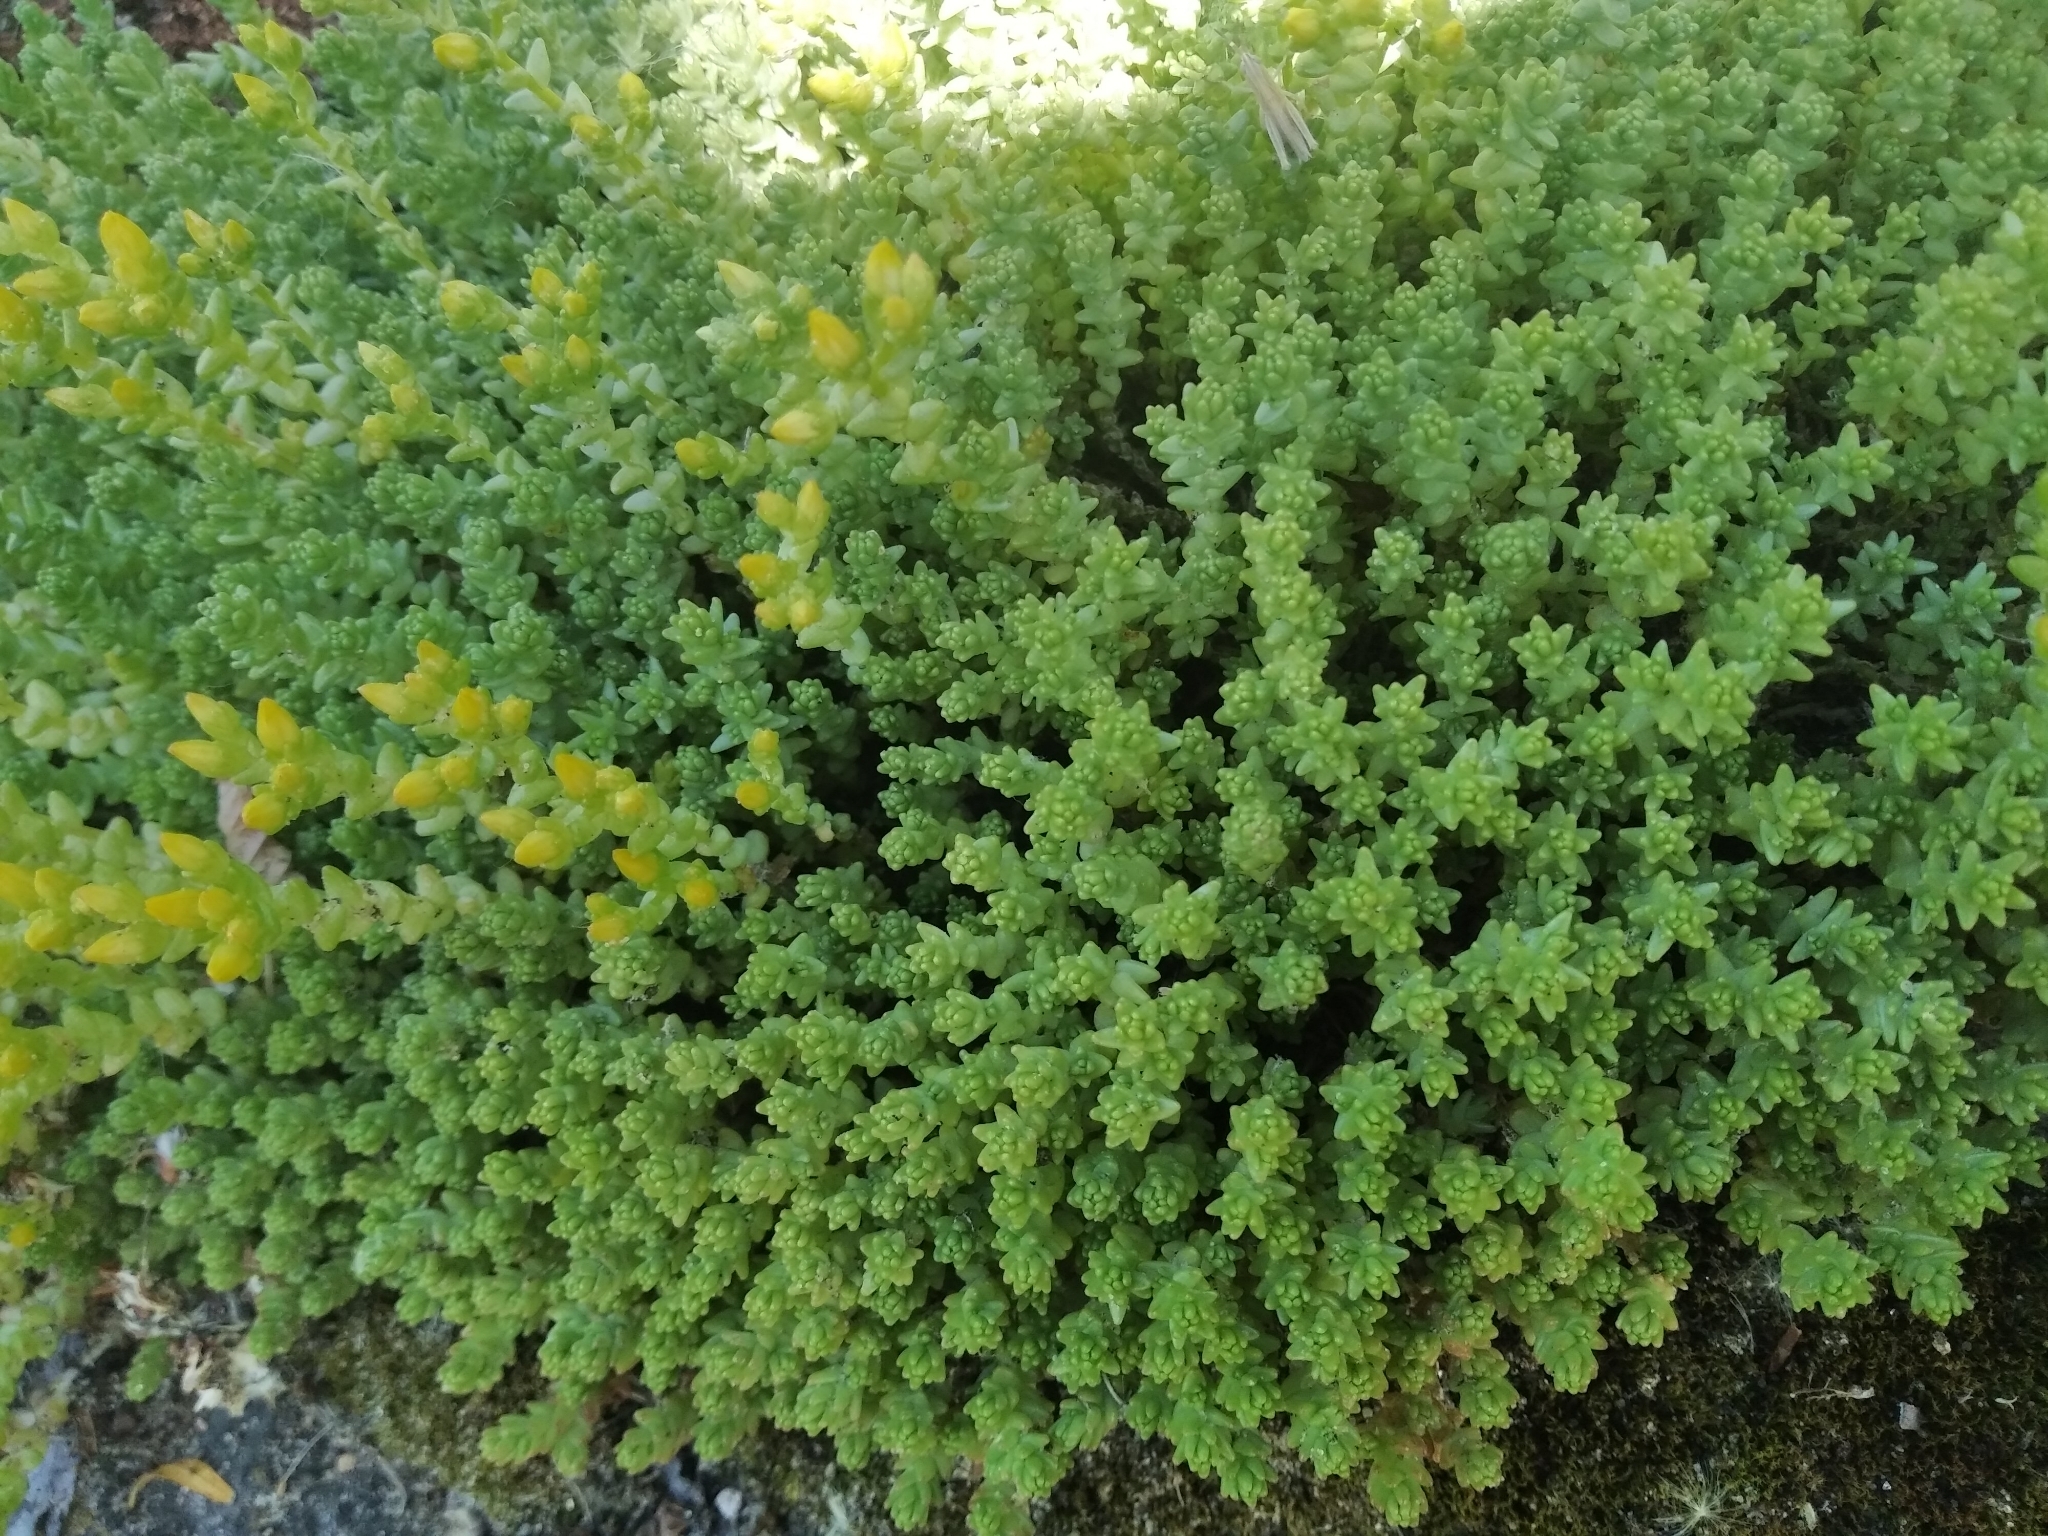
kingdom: Plantae
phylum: Tracheophyta
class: Magnoliopsida
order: Saxifragales
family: Crassulaceae
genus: Sedum
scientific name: Sedum acre
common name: Biting stonecrop
